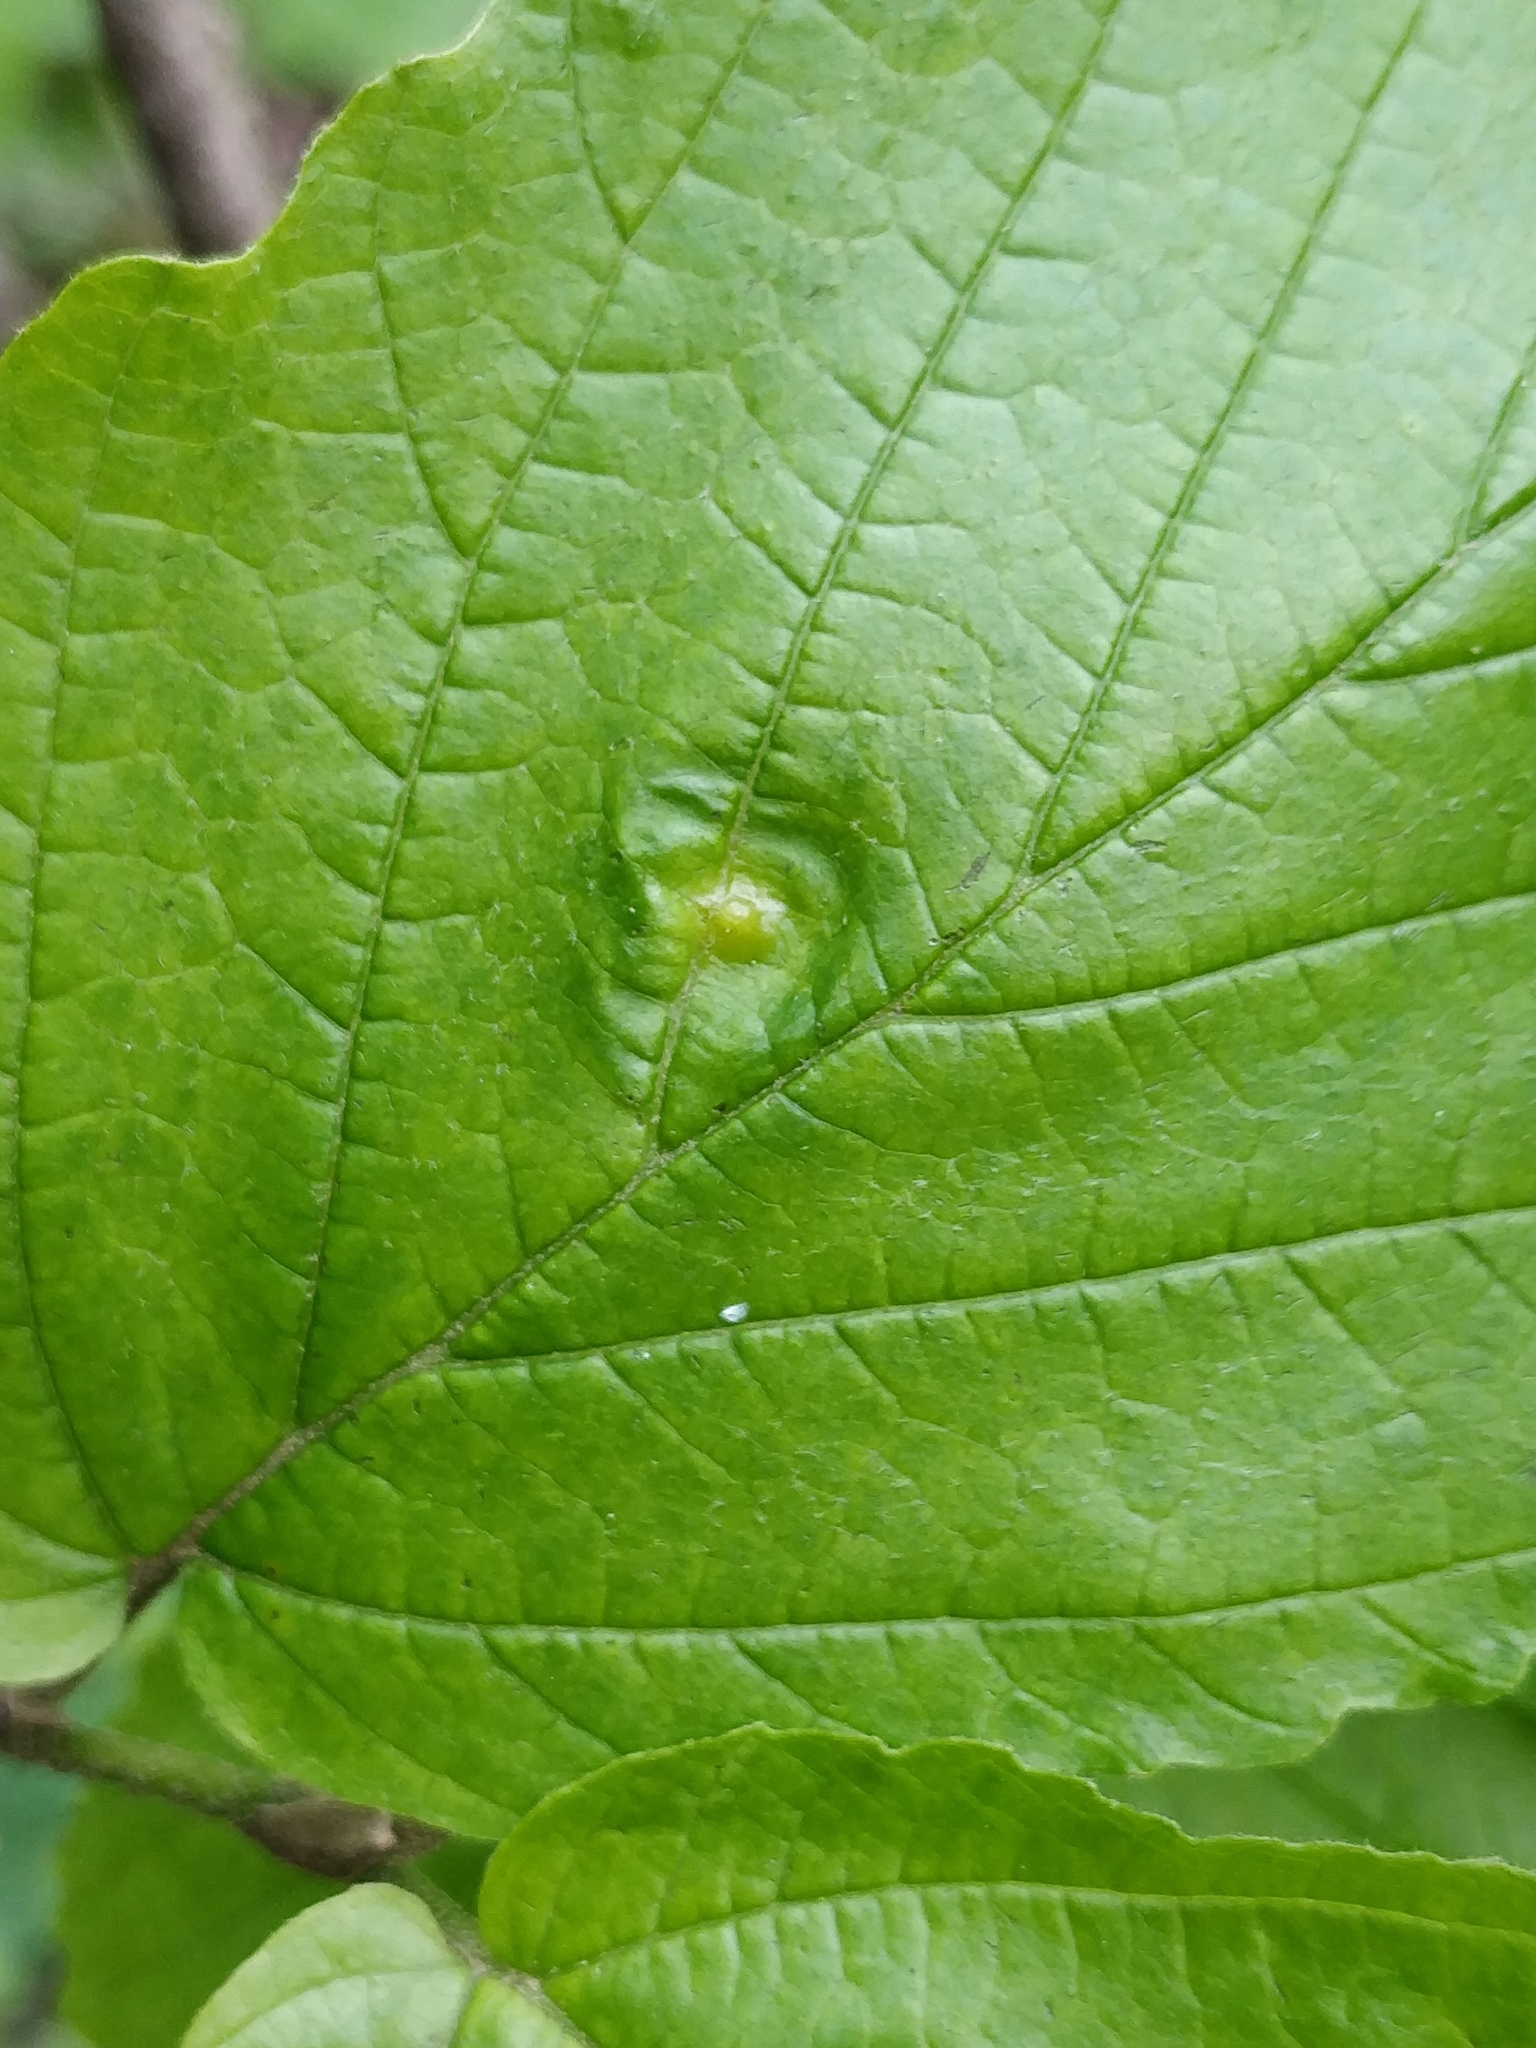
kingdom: Animalia
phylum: Arthropoda
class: Insecta
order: Hemiptera
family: Aphididae
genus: Hormaphis
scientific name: Hormaphis hamamelidis
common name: Witch-hazel cone gall aphid
